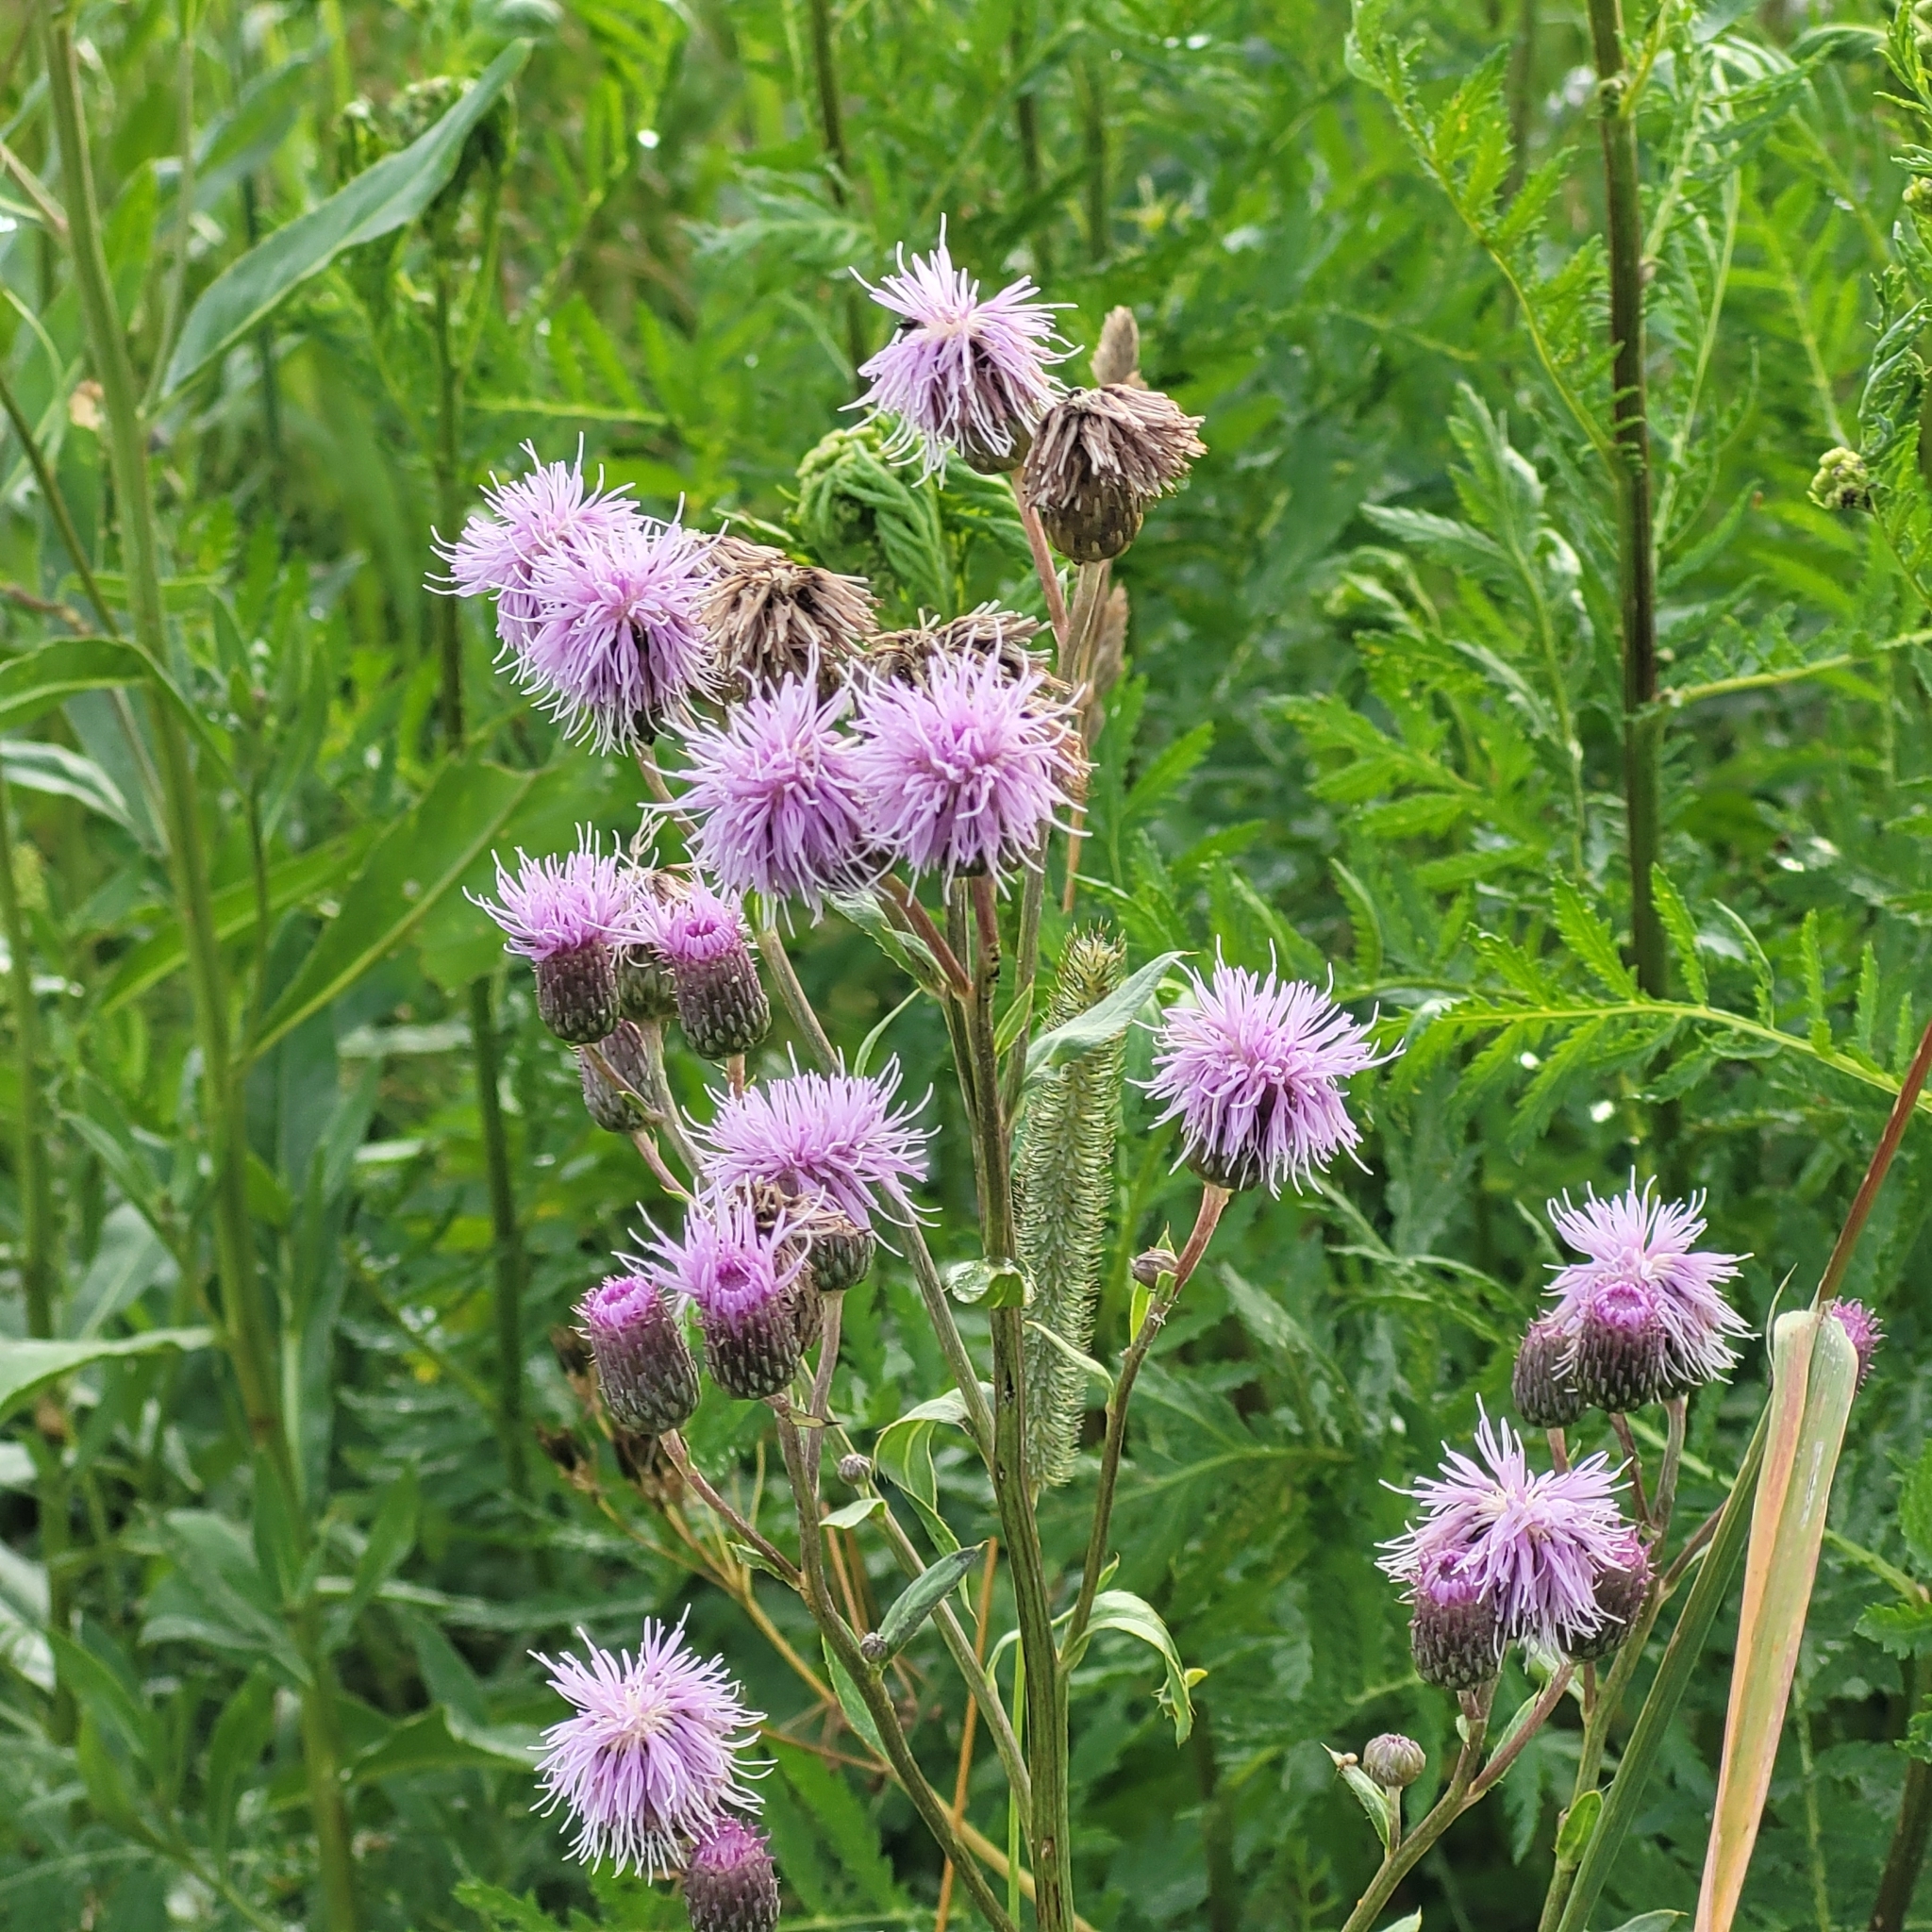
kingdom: Plantae
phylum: Tracheophyta
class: Magnoliopsida
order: Asterales
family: Asteraceae
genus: Cirsium
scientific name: Cirsium arvense
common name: Creeping thistle
